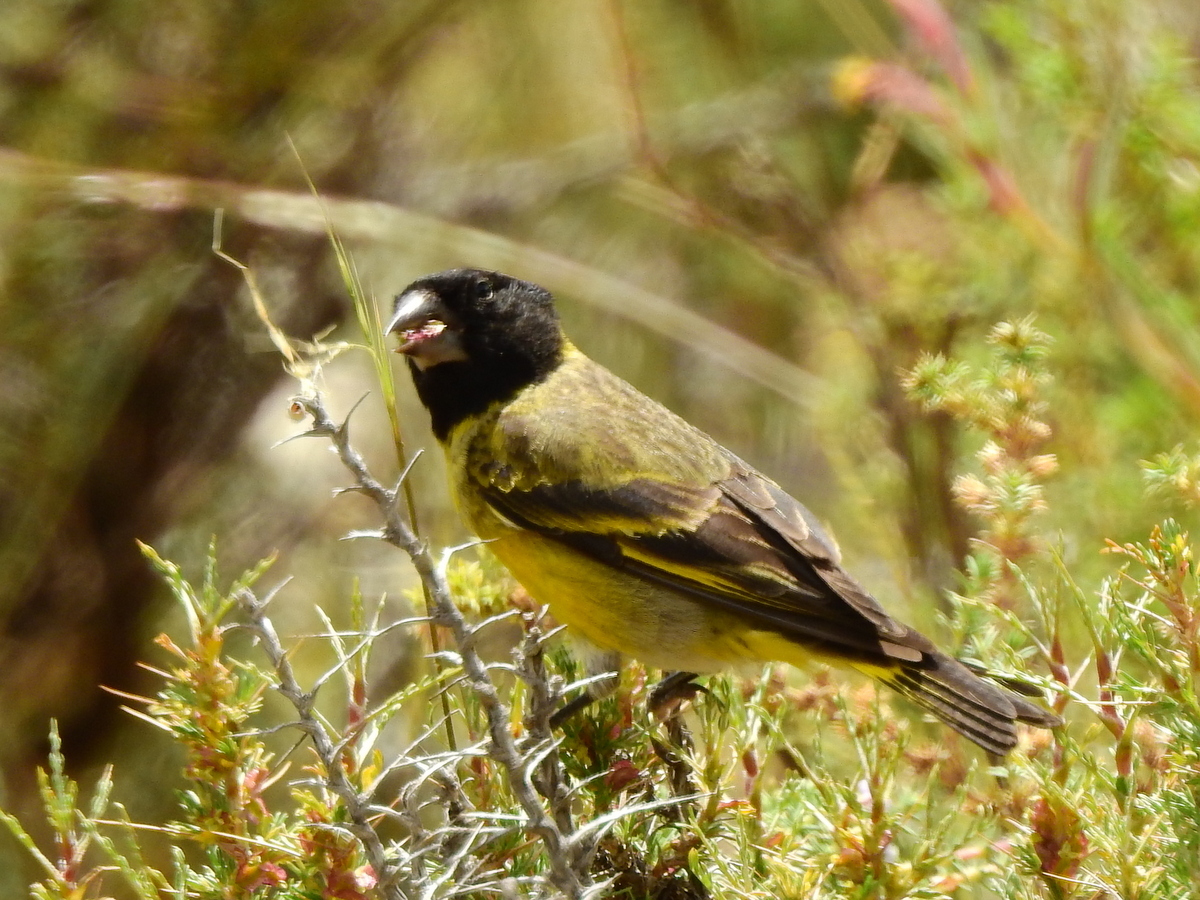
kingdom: Animalia
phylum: Chordata
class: Aves
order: Passeriformes
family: Fringillidae
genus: Spinus
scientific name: Spinus crassirostris
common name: Thick-billed siskin
